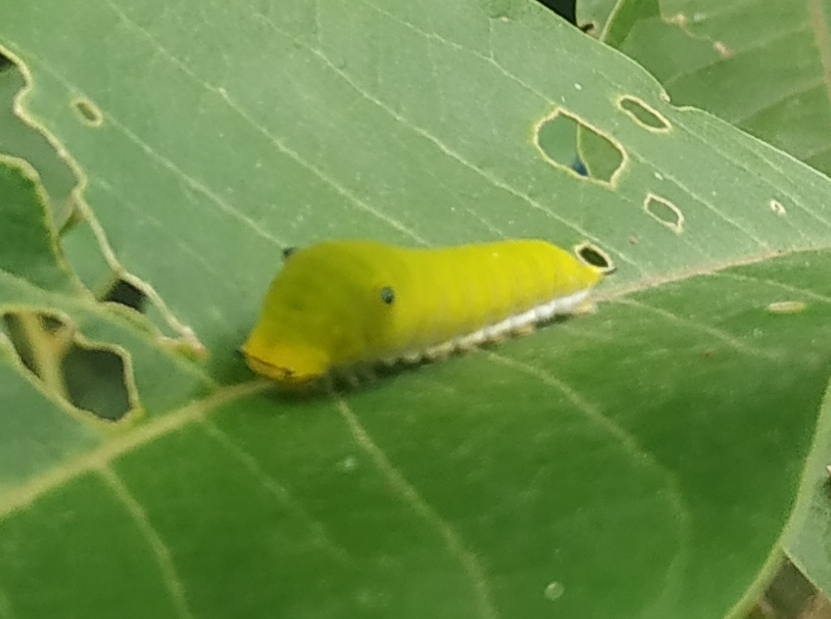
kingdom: Animalia
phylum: Arthropoda
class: Insecta
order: Lepidoptera
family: Papilionidae
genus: Graphium
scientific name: Graphium doson
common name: Common jay
